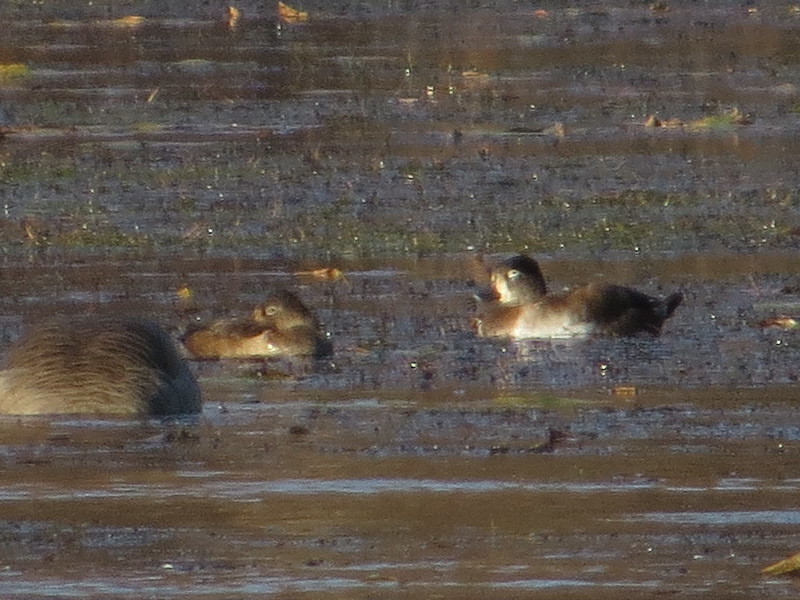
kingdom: Animalia
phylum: Chordata
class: Aves
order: Anseriformes
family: Anatidae
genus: Aythya
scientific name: Aythya collaris
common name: Ring-necked duck
